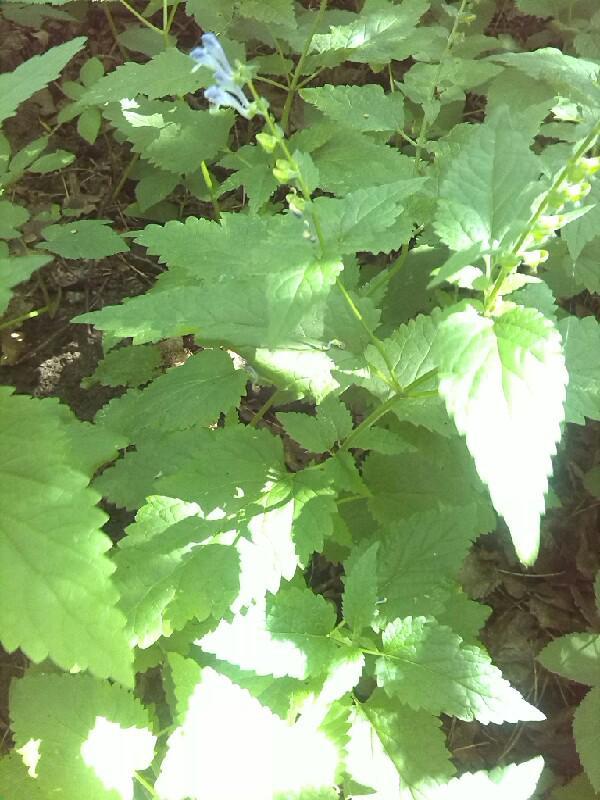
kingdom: Plantae
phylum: Tracheophyta
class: Magnoliopsida
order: Lamiales
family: Lamiaceae
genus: Scutellaria
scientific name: Scutellaria altissima
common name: Somerset skullcap
